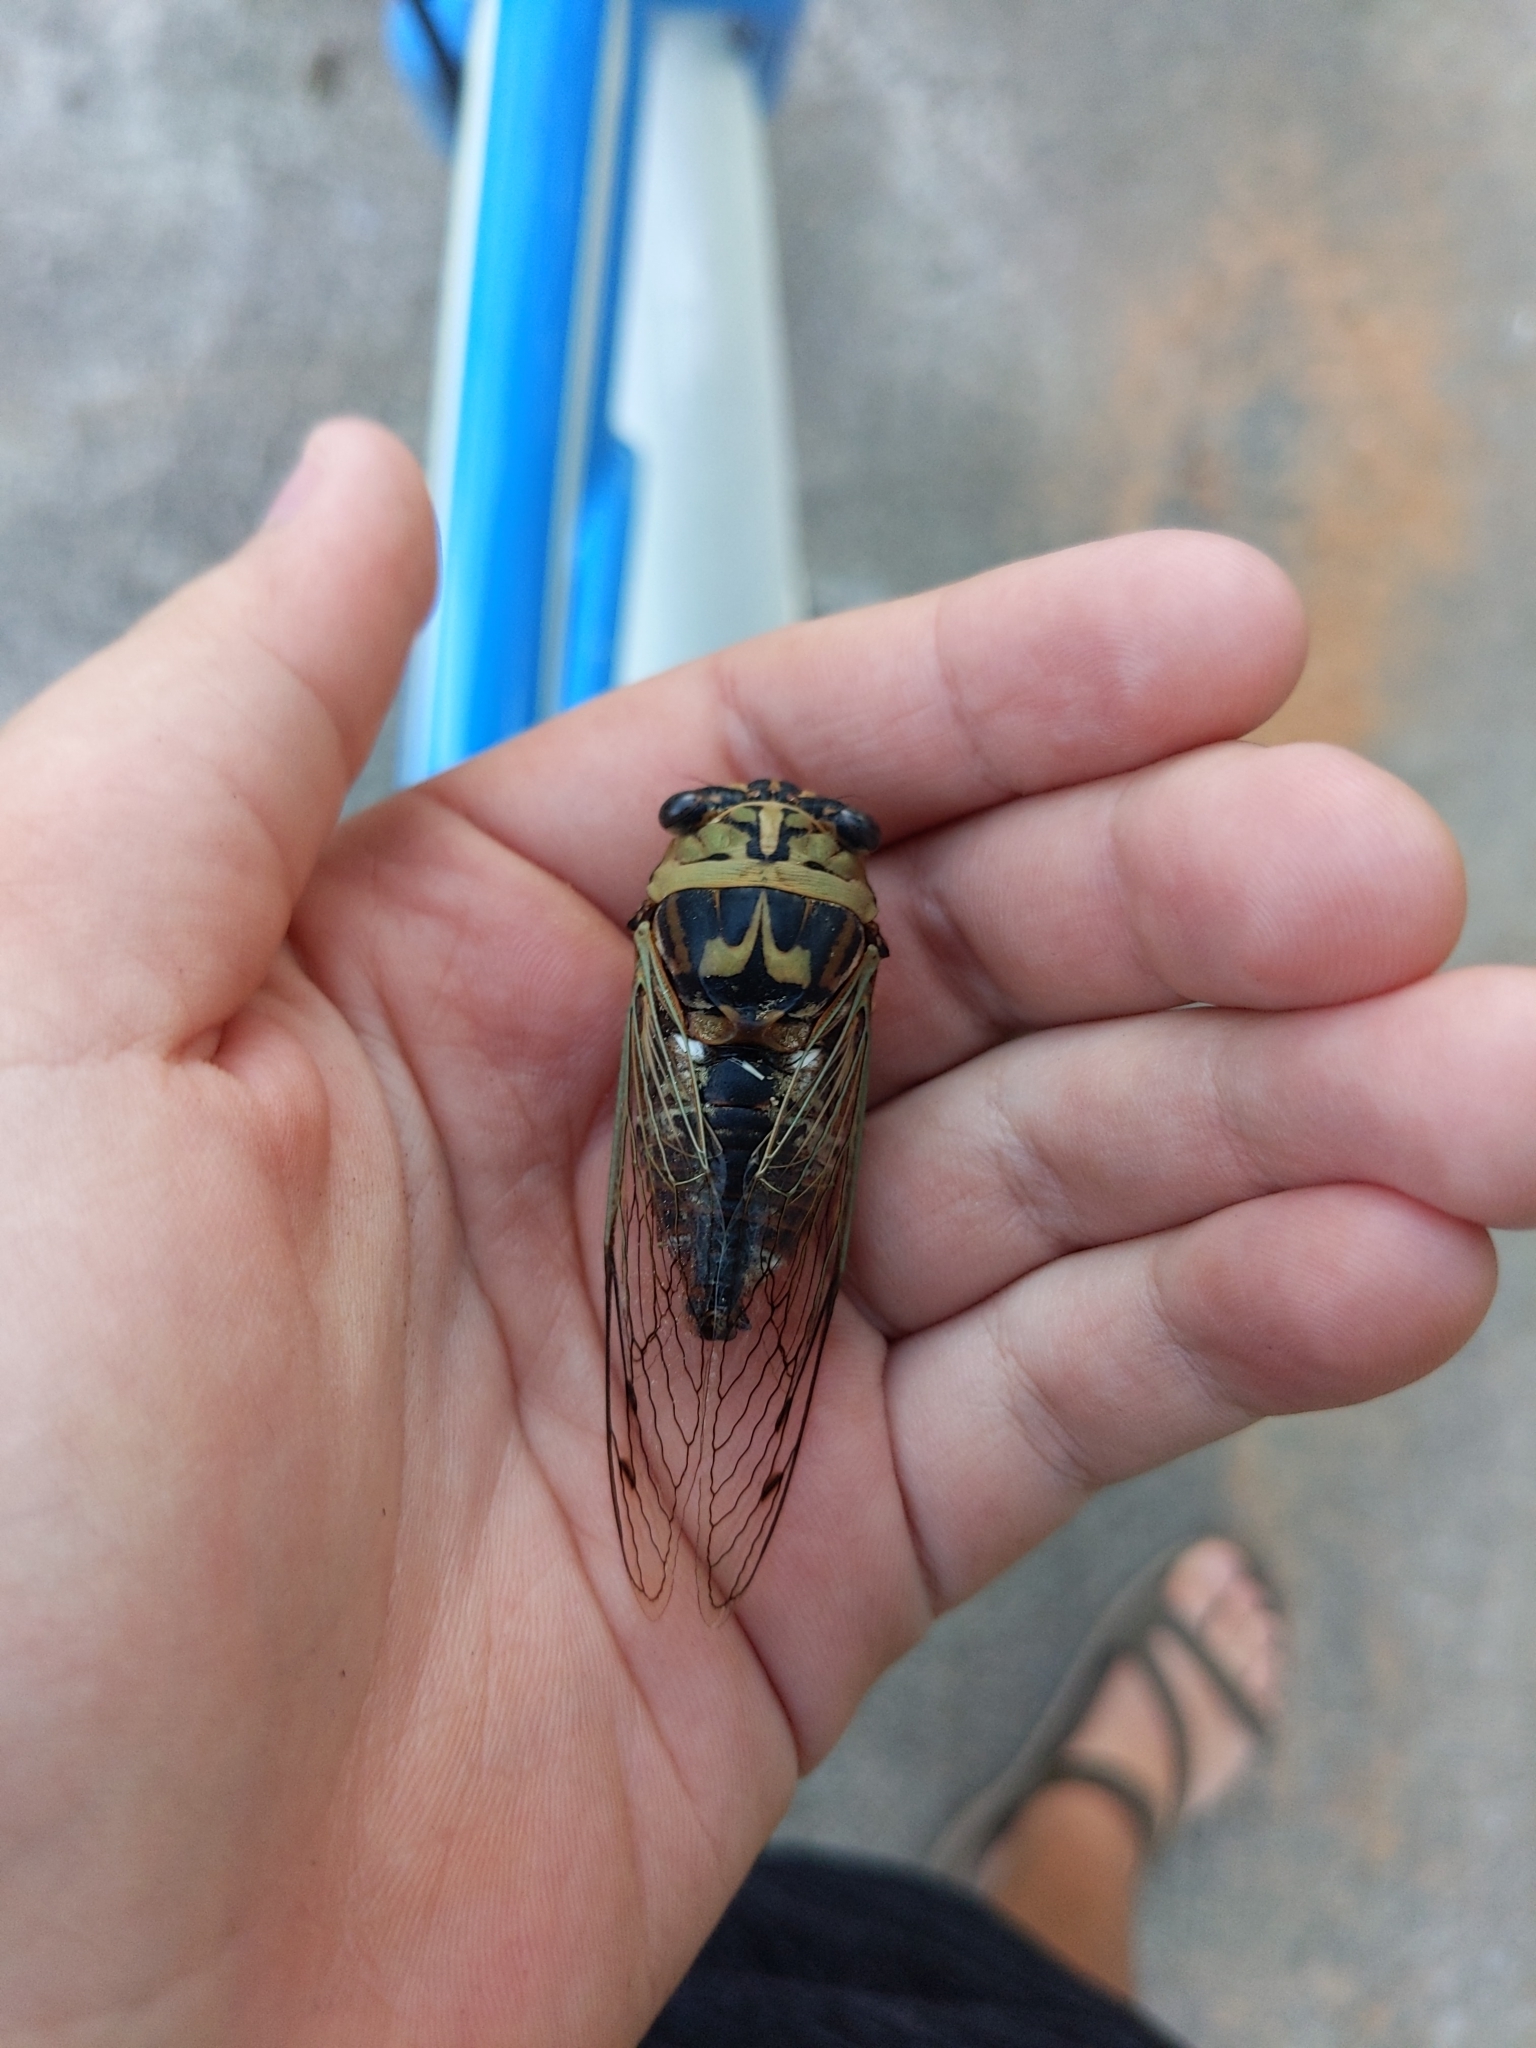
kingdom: Animalia
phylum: Arthropoda
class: Insecta
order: Hemiptera
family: Cicadidae
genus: Megatibicen
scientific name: Megatibicen resh
